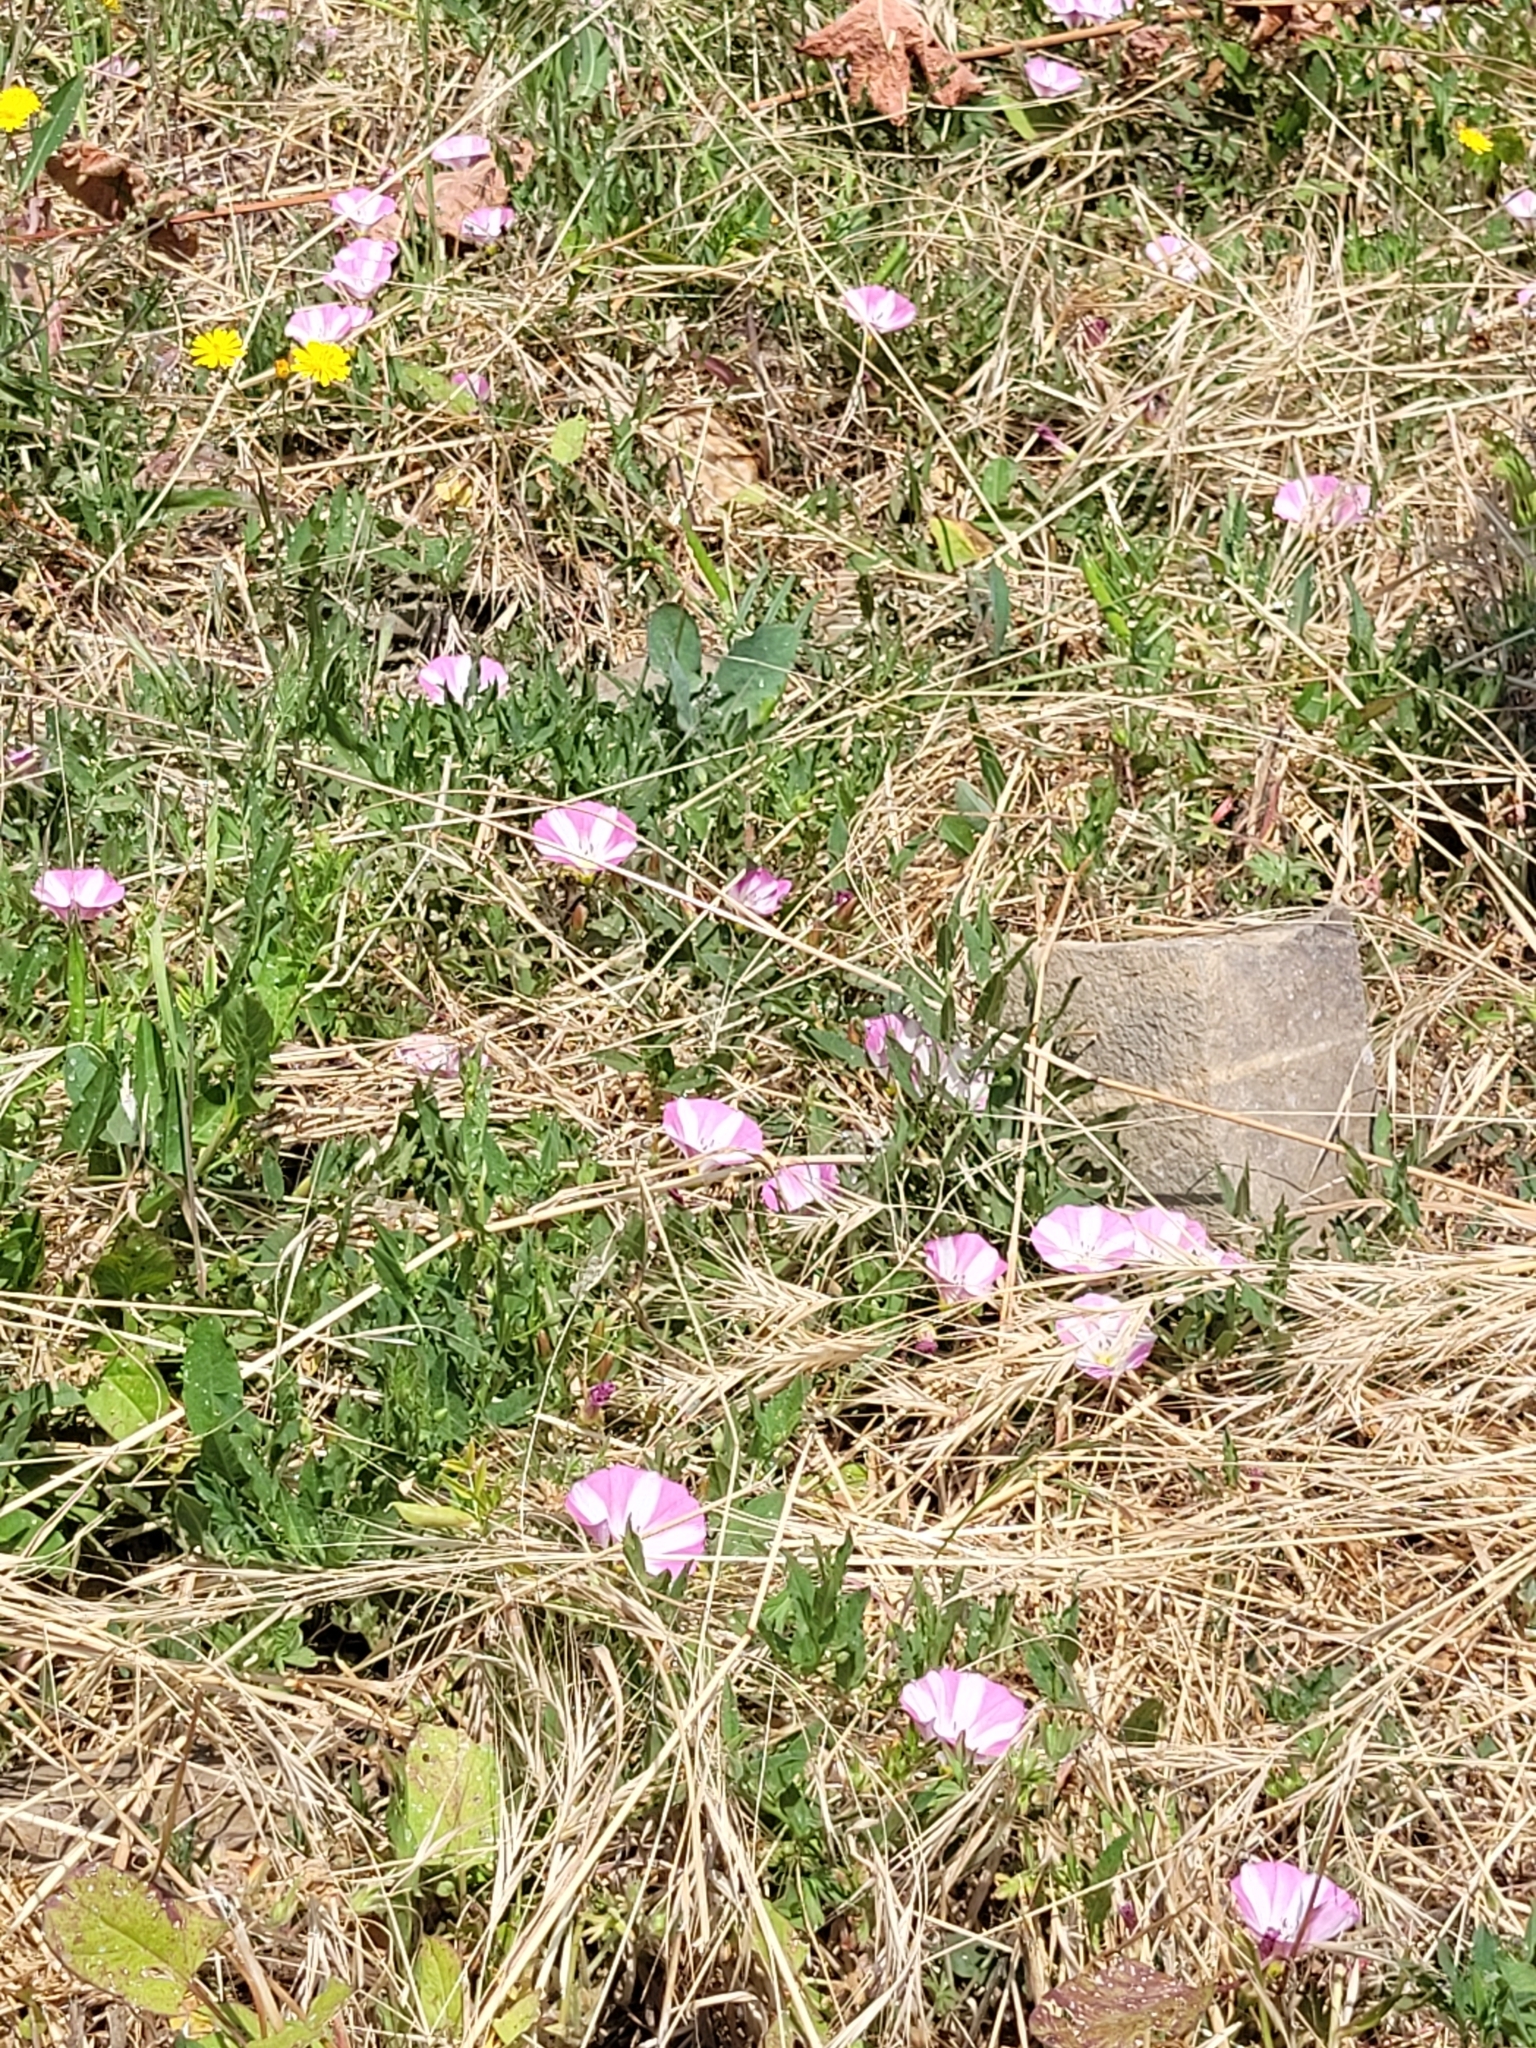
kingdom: Plantae
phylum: Tracheophyta
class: Magnoliopsida
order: Solanales
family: Convolvulaceae
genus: Convolvulus
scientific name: Convolvulus arvensis
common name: Field bindweed
